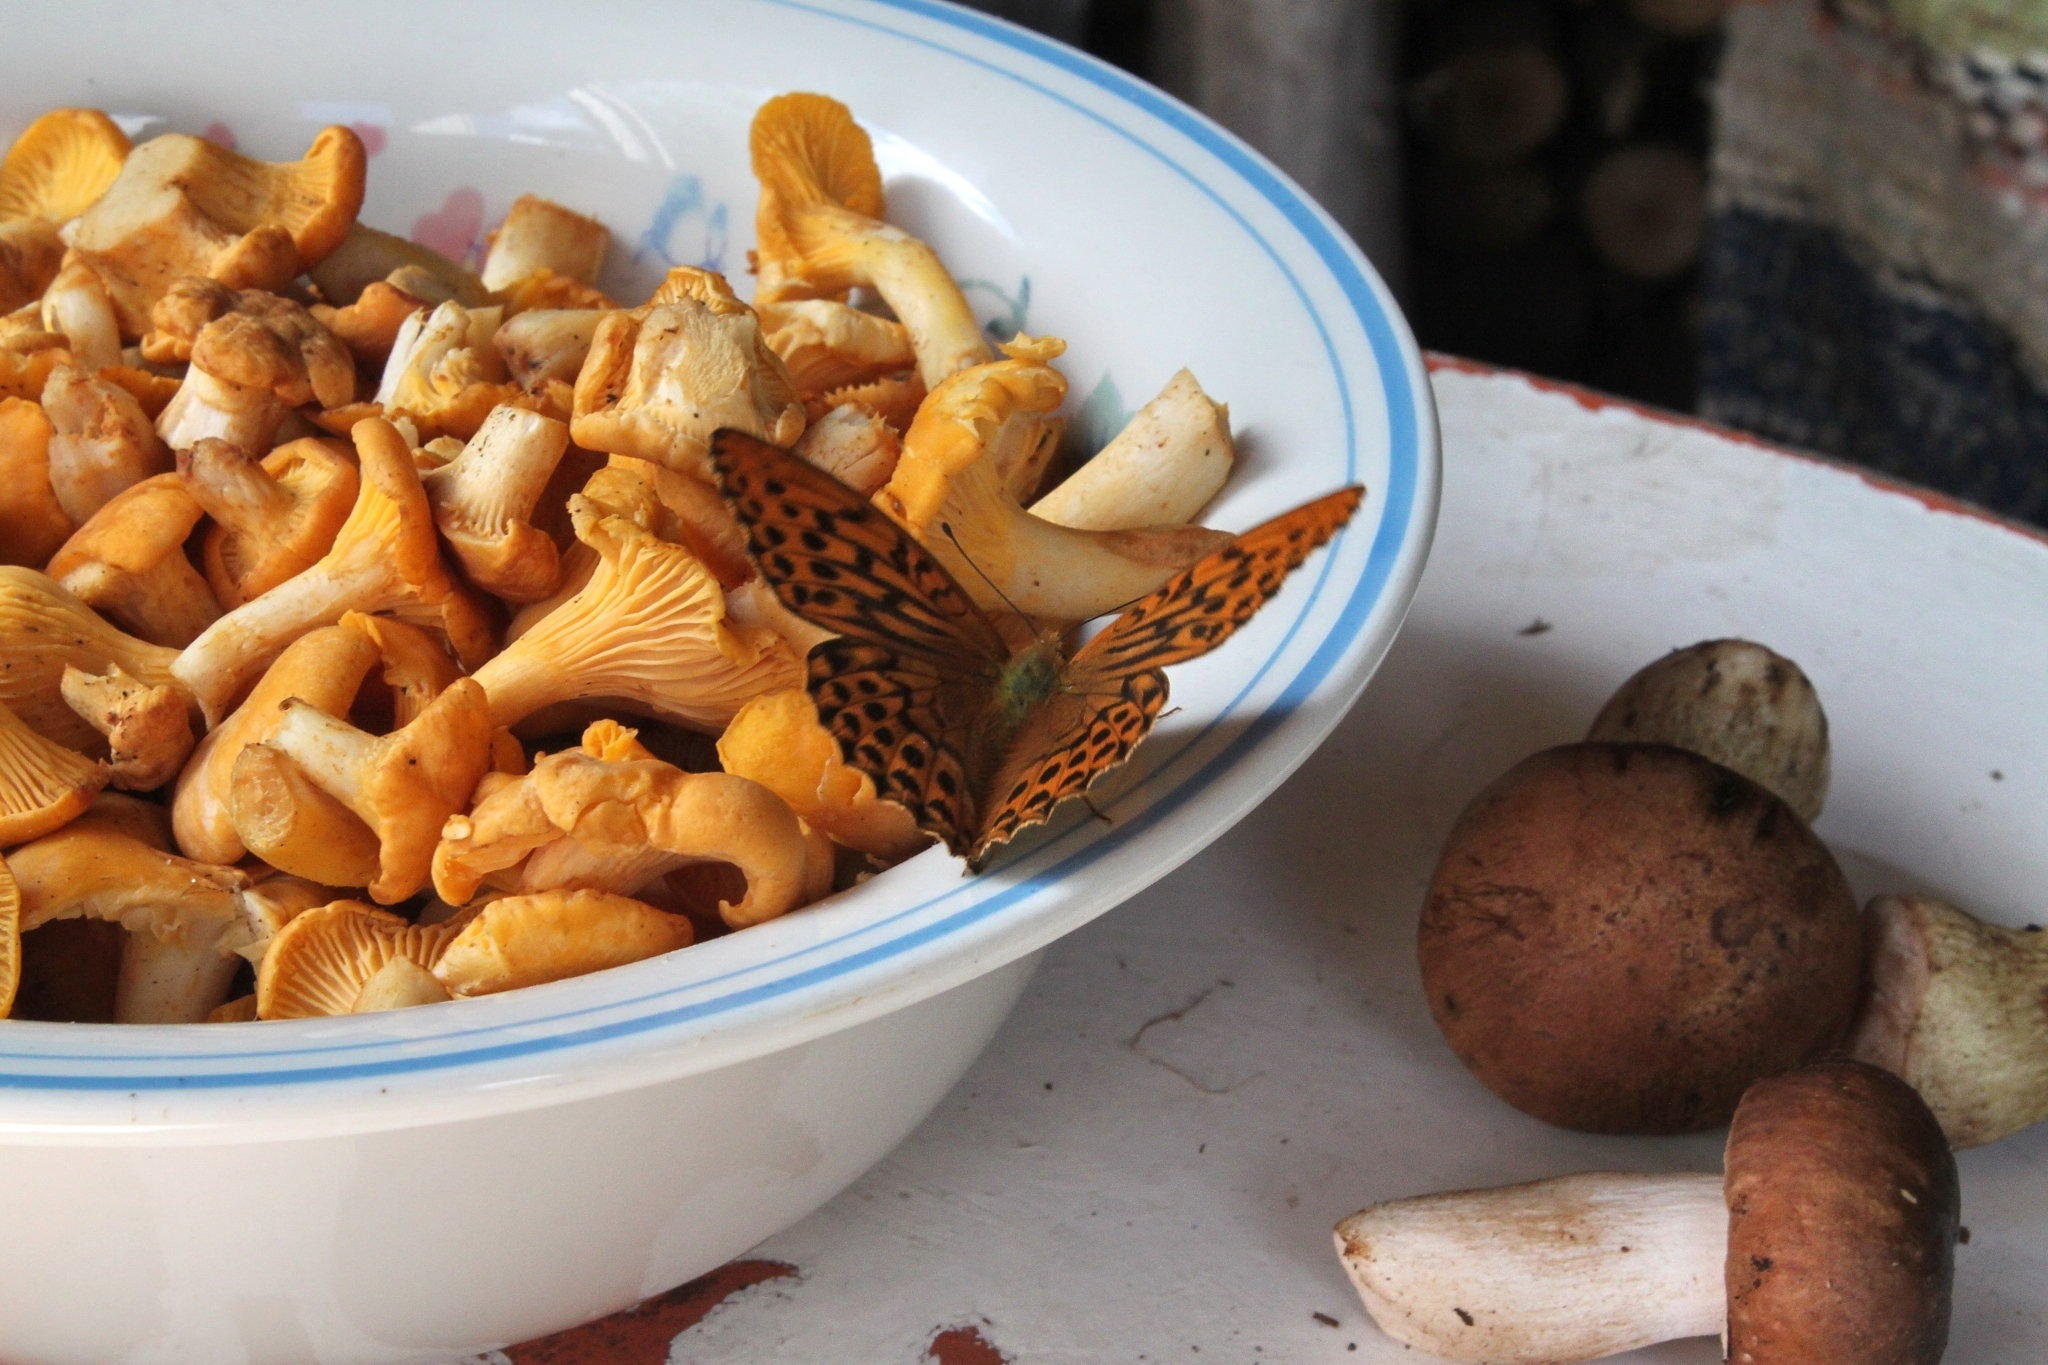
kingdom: Animalia
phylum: Arthropoda
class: Insecta
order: Lepidoptera
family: Nymphalidae
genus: Argynnis
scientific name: Argynnis paphia
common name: Silver-washed fritillary
